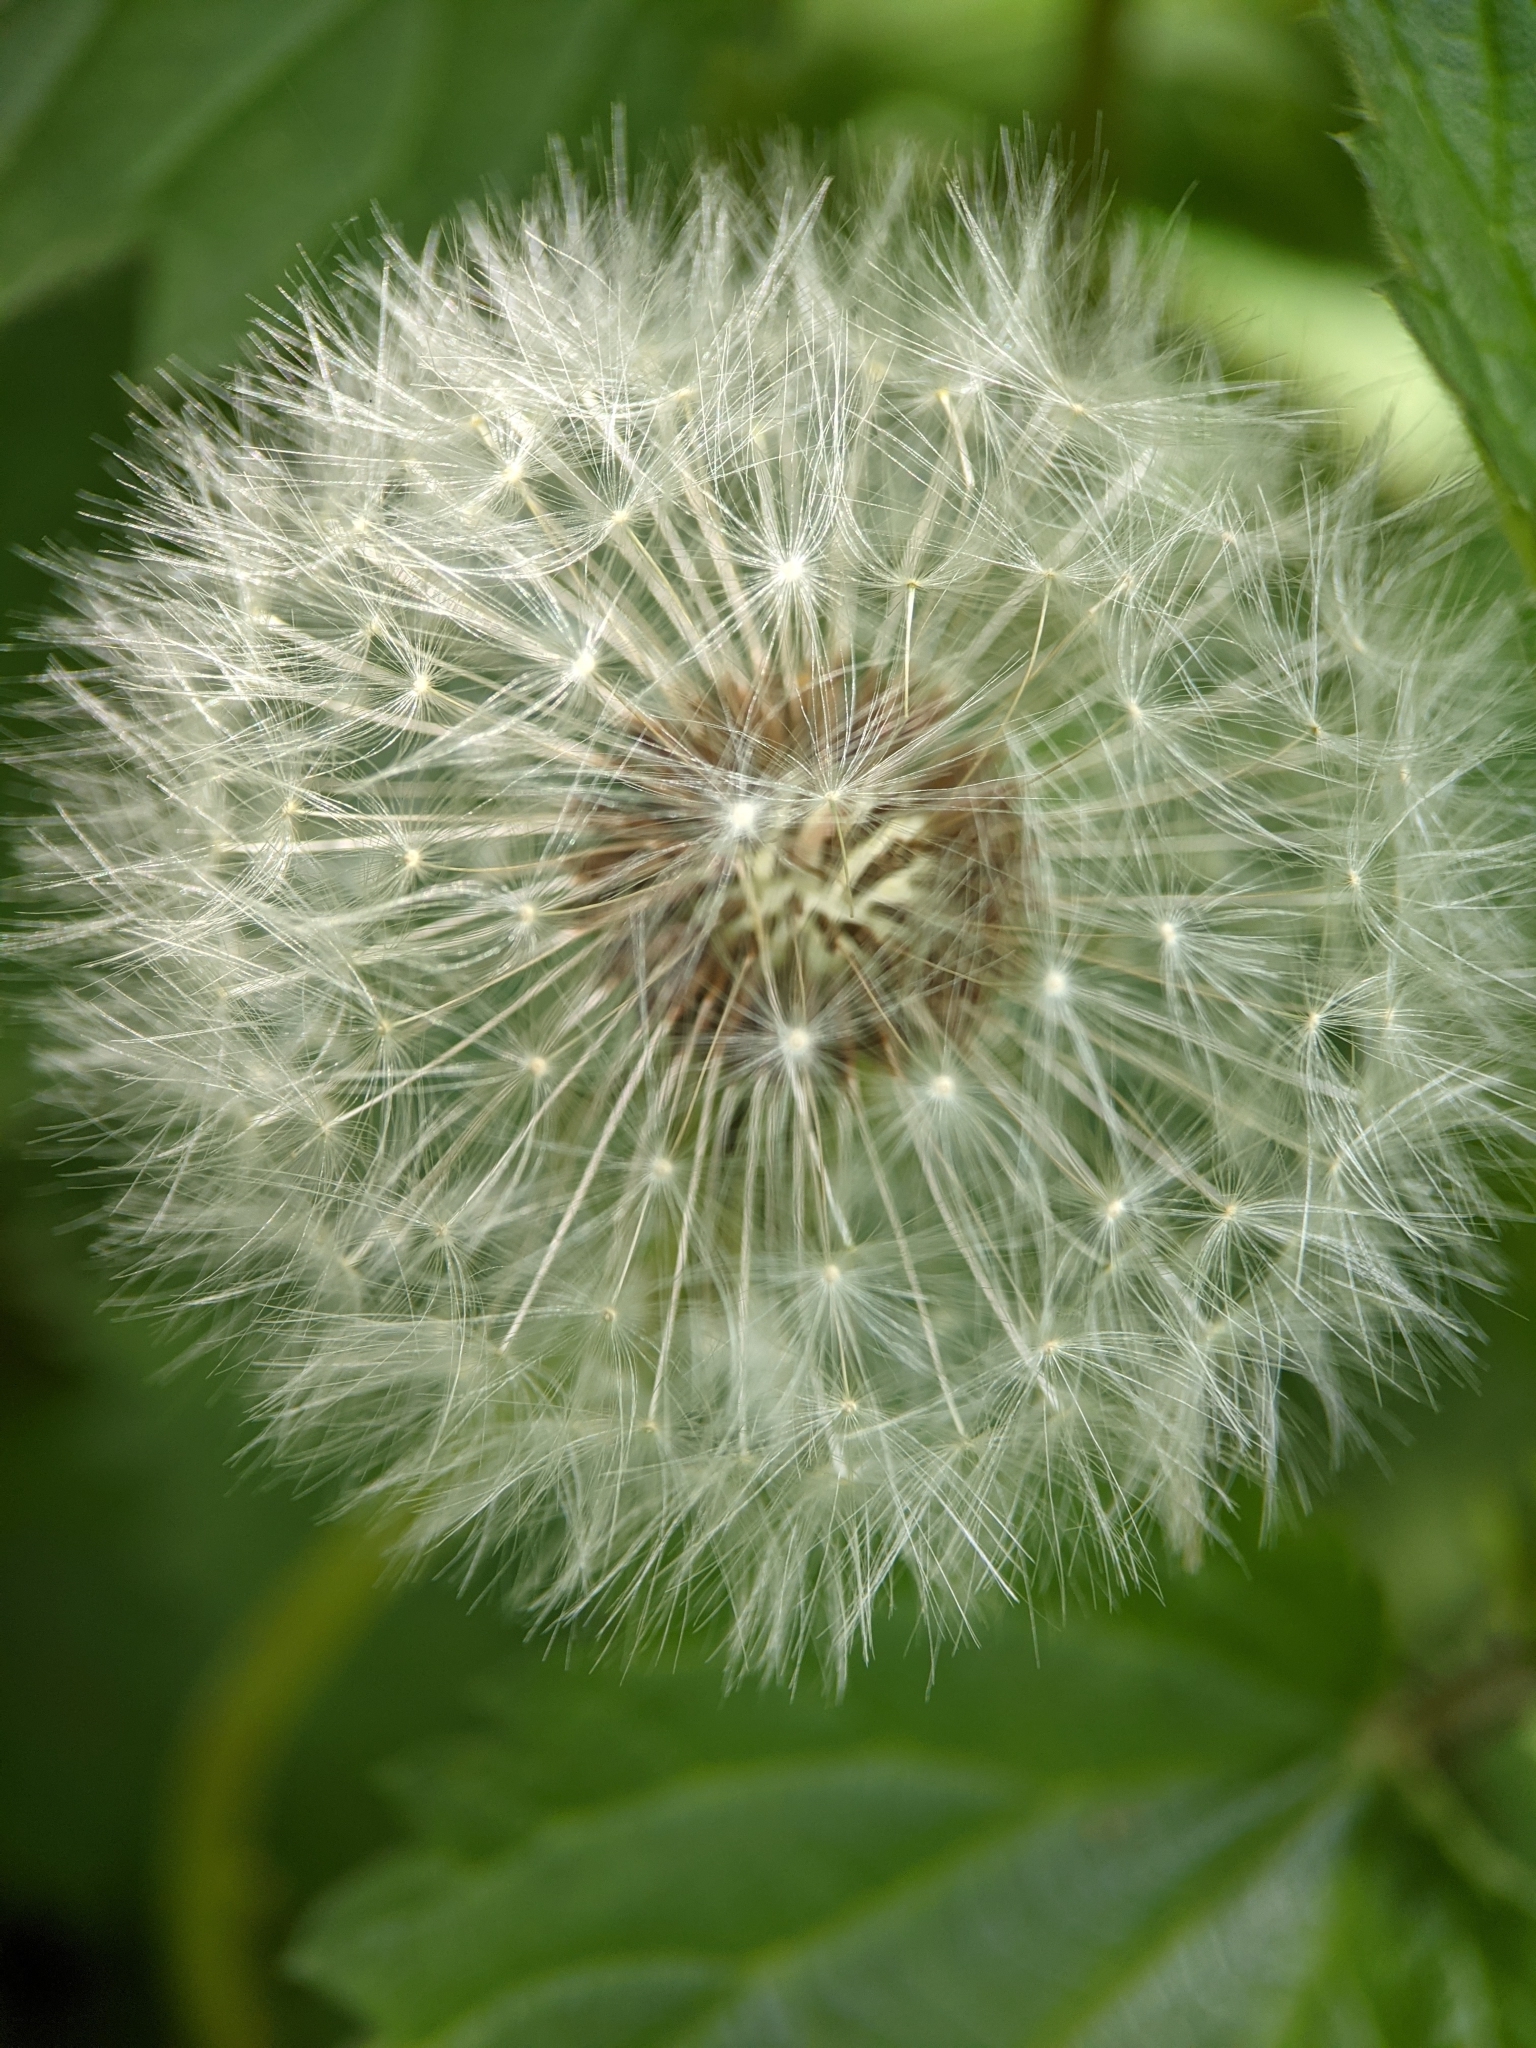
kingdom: Plantae
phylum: Tracheophyta
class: Magnoliopsida
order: Asterales
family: Asteraceae
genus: Taraxacum
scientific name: Taraxacum officinale
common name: Common dandelion
